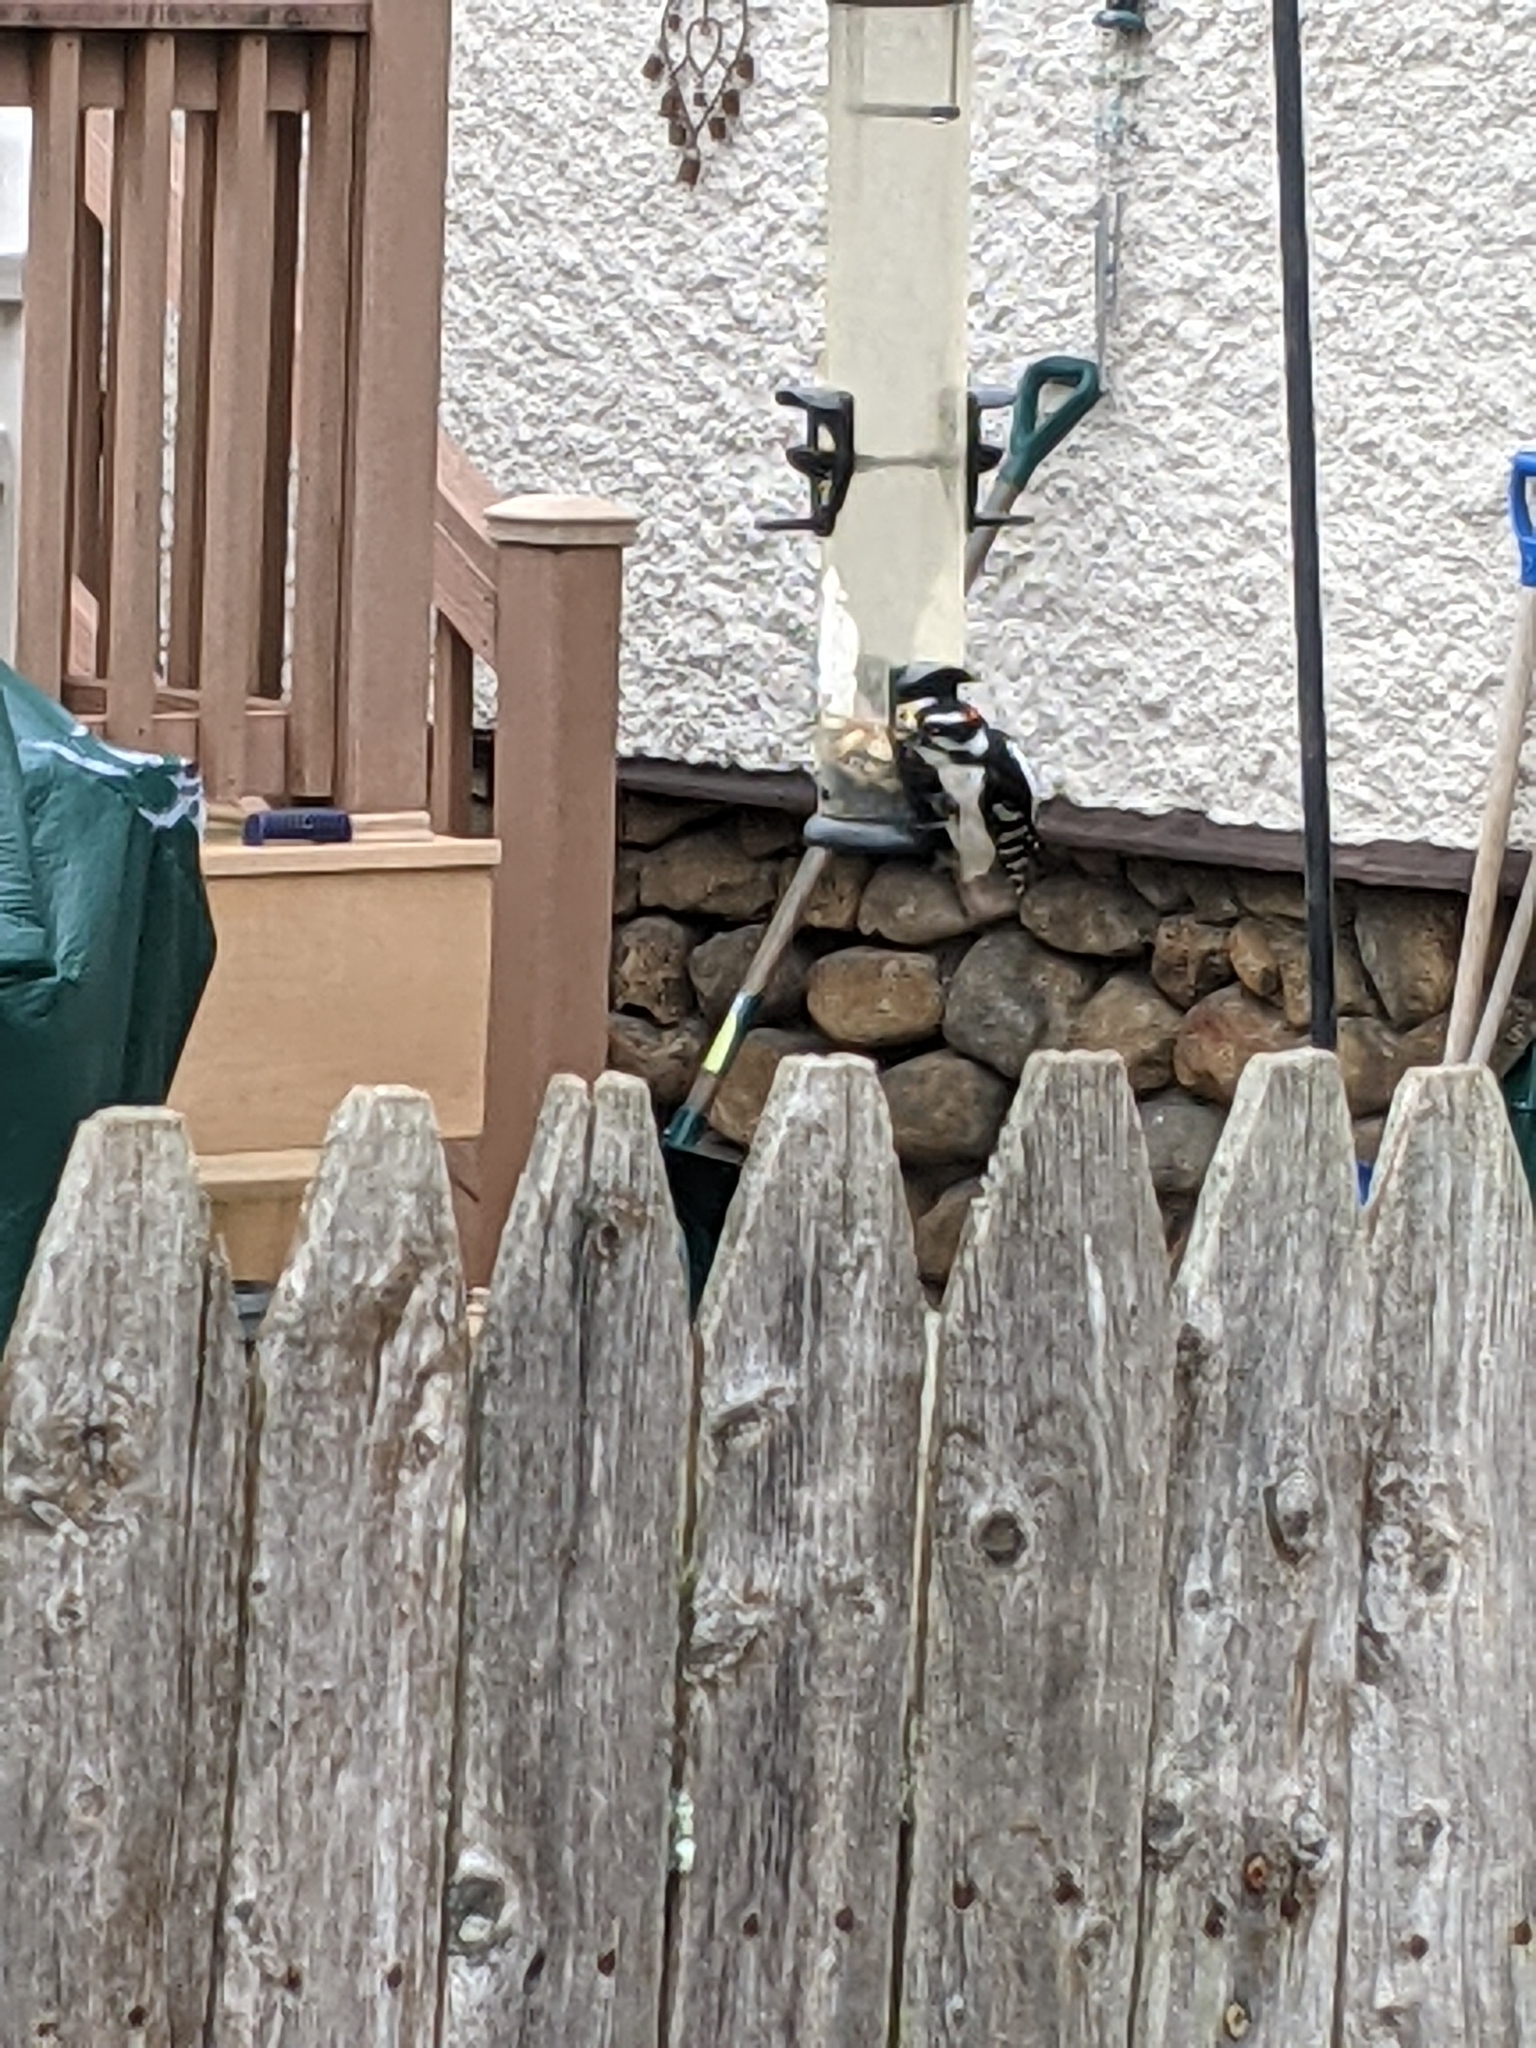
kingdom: Animalia
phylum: Chordata
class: Aves
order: Piciformes
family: Picidae
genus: Dryobates
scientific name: Dryobates pubescens
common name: Downy woodpecker
